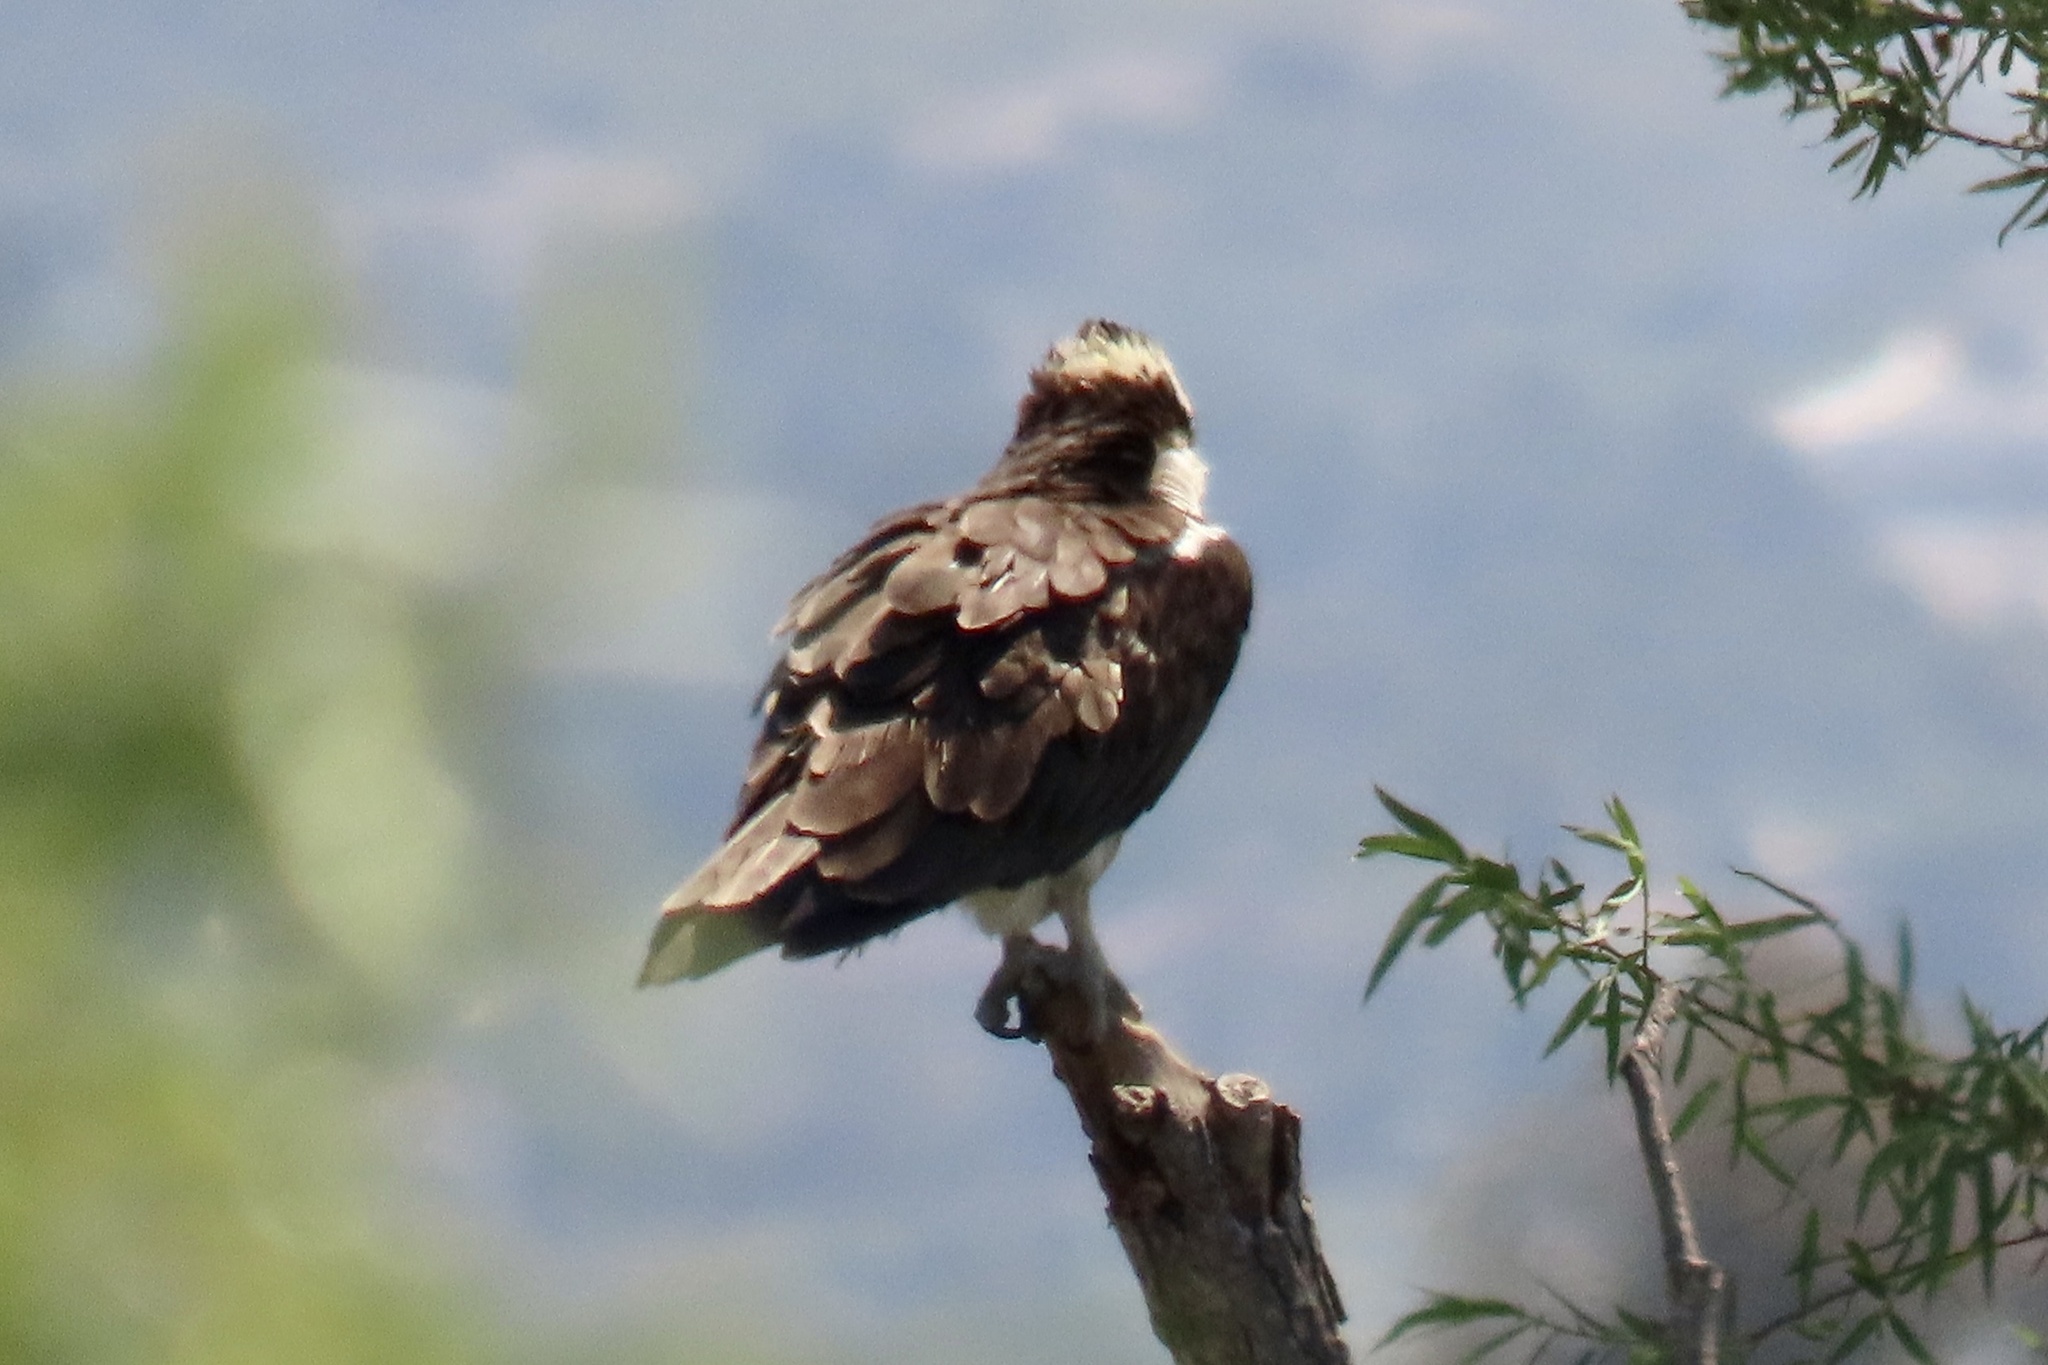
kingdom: Animalia
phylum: Chordata
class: Aves
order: Accipitriformes
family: Pandionidae
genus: Pandion
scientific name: Pandion haliaetus
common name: Osprey
